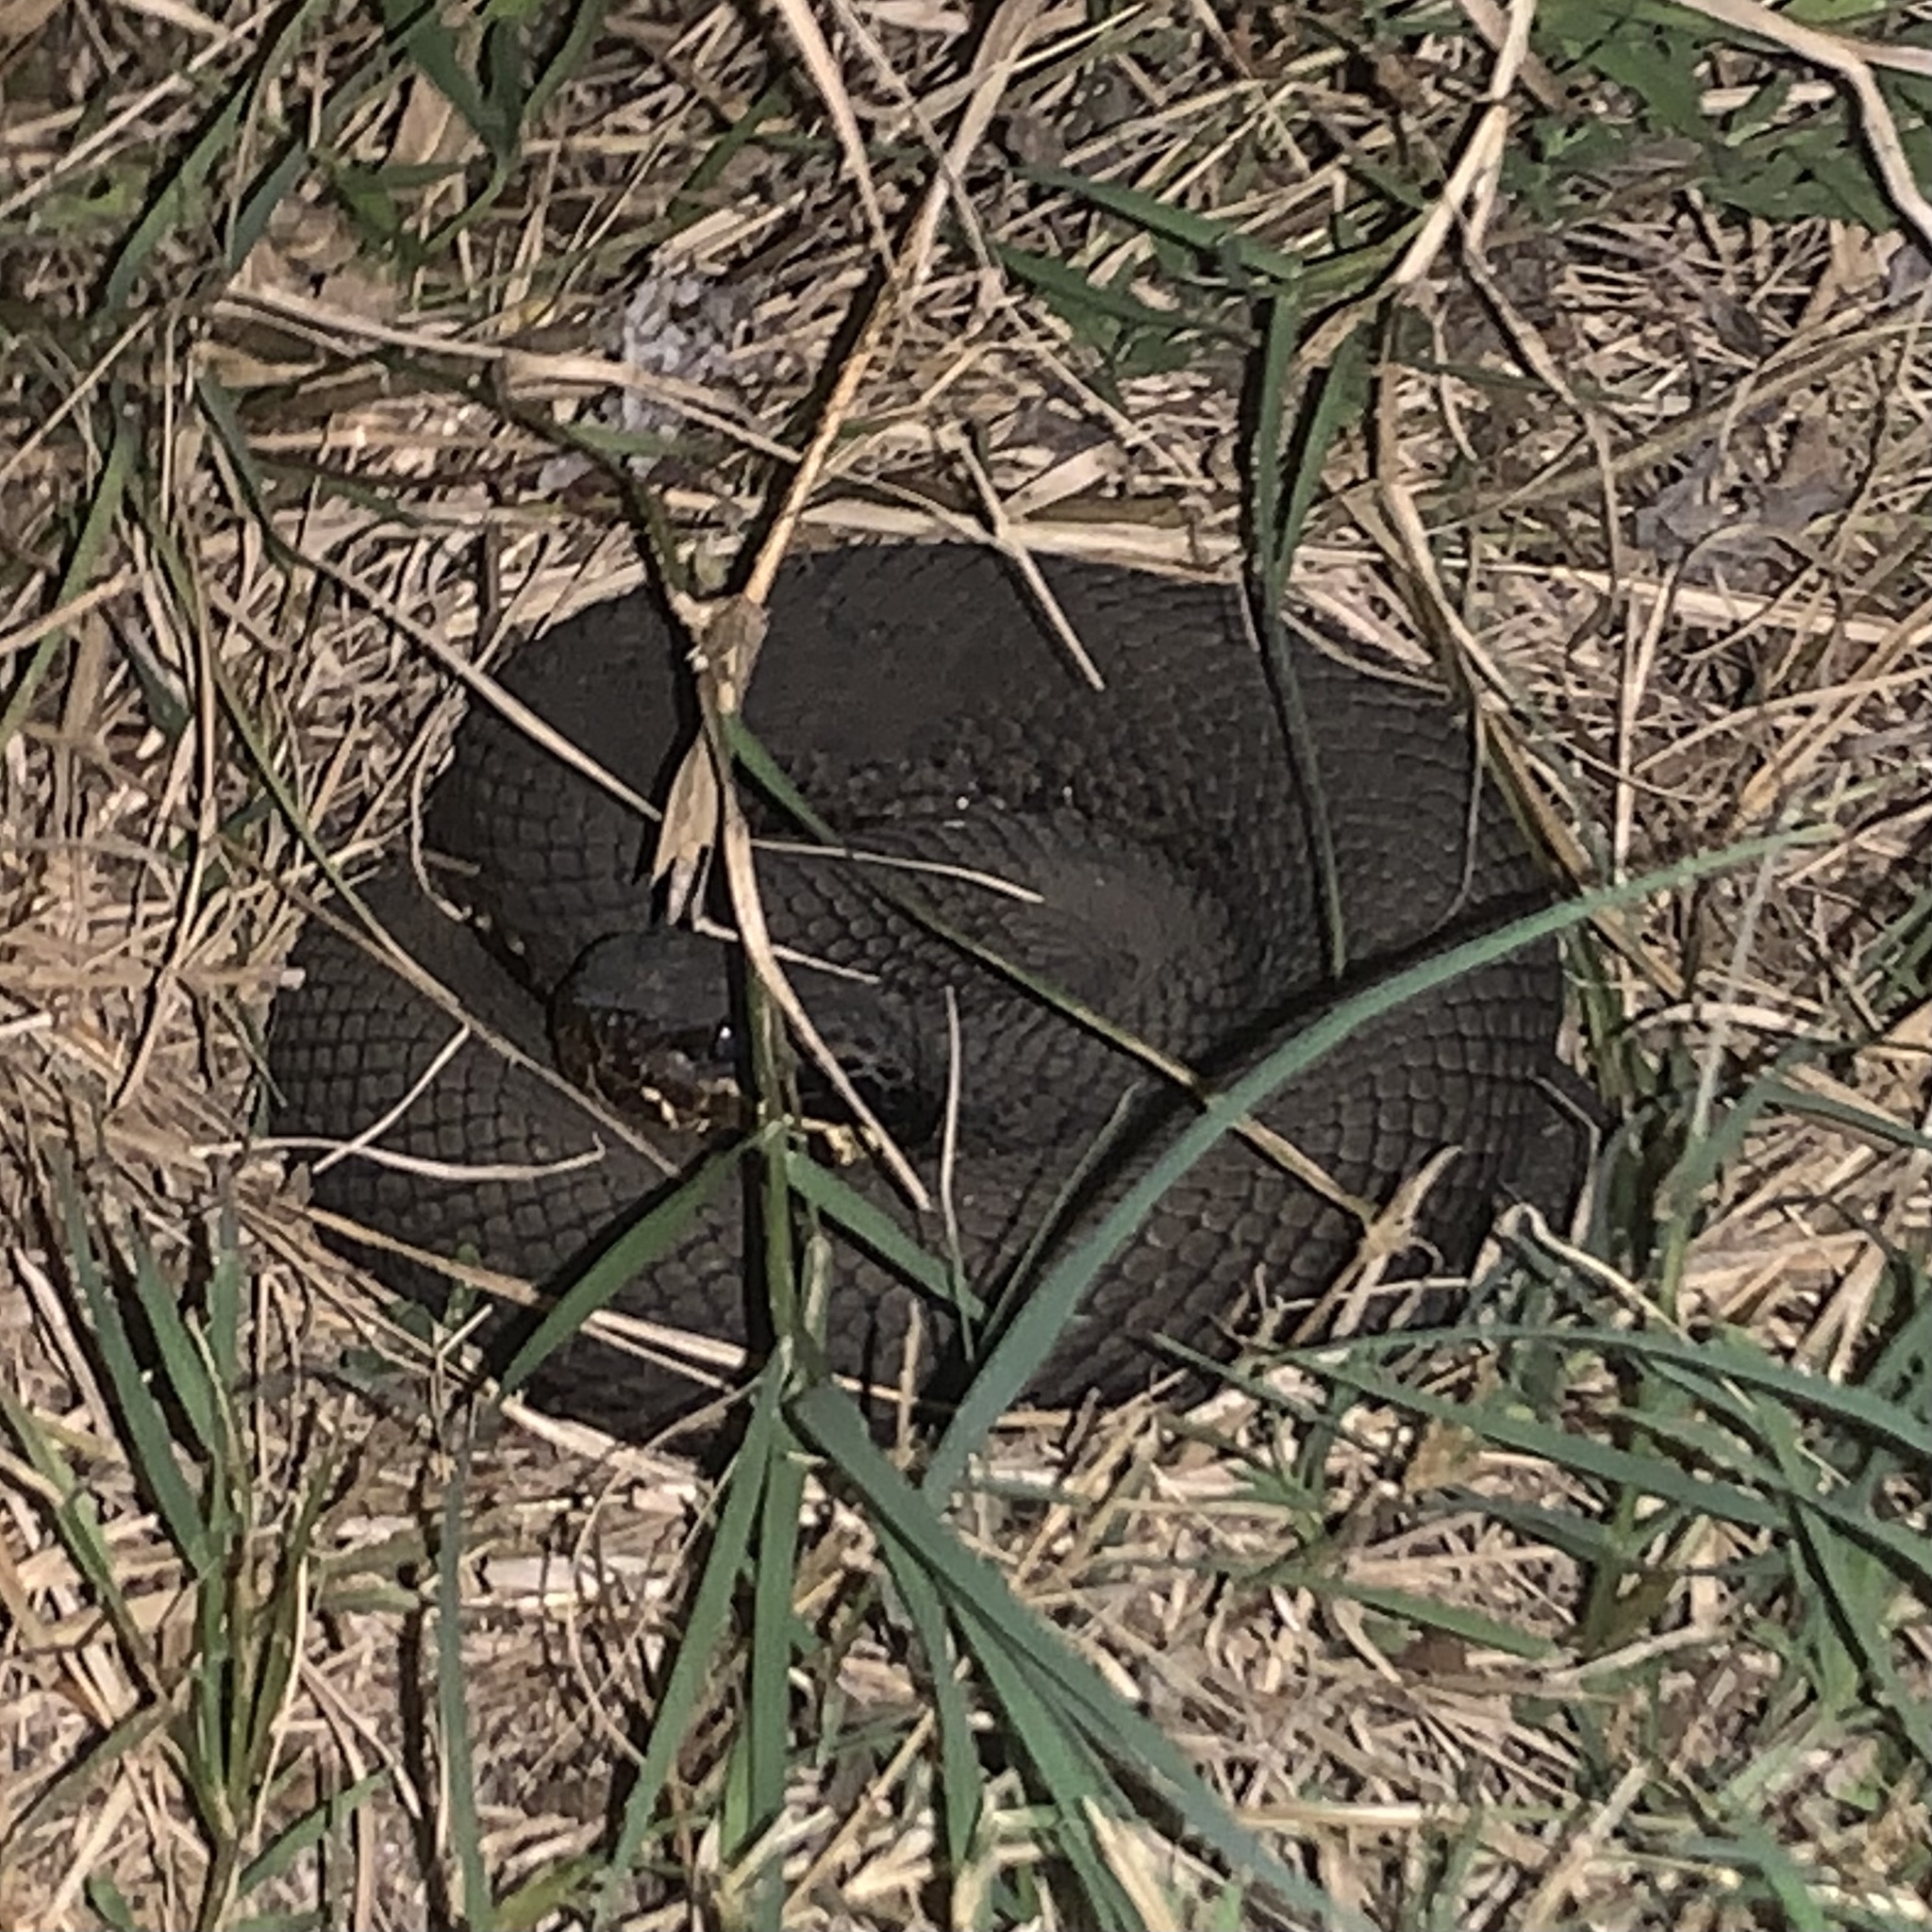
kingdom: Animalia
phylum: Chordata
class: Squamata
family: Viperidae
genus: Agkistrodon
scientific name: Agkistrodon piscivorus
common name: Cottonmouth
